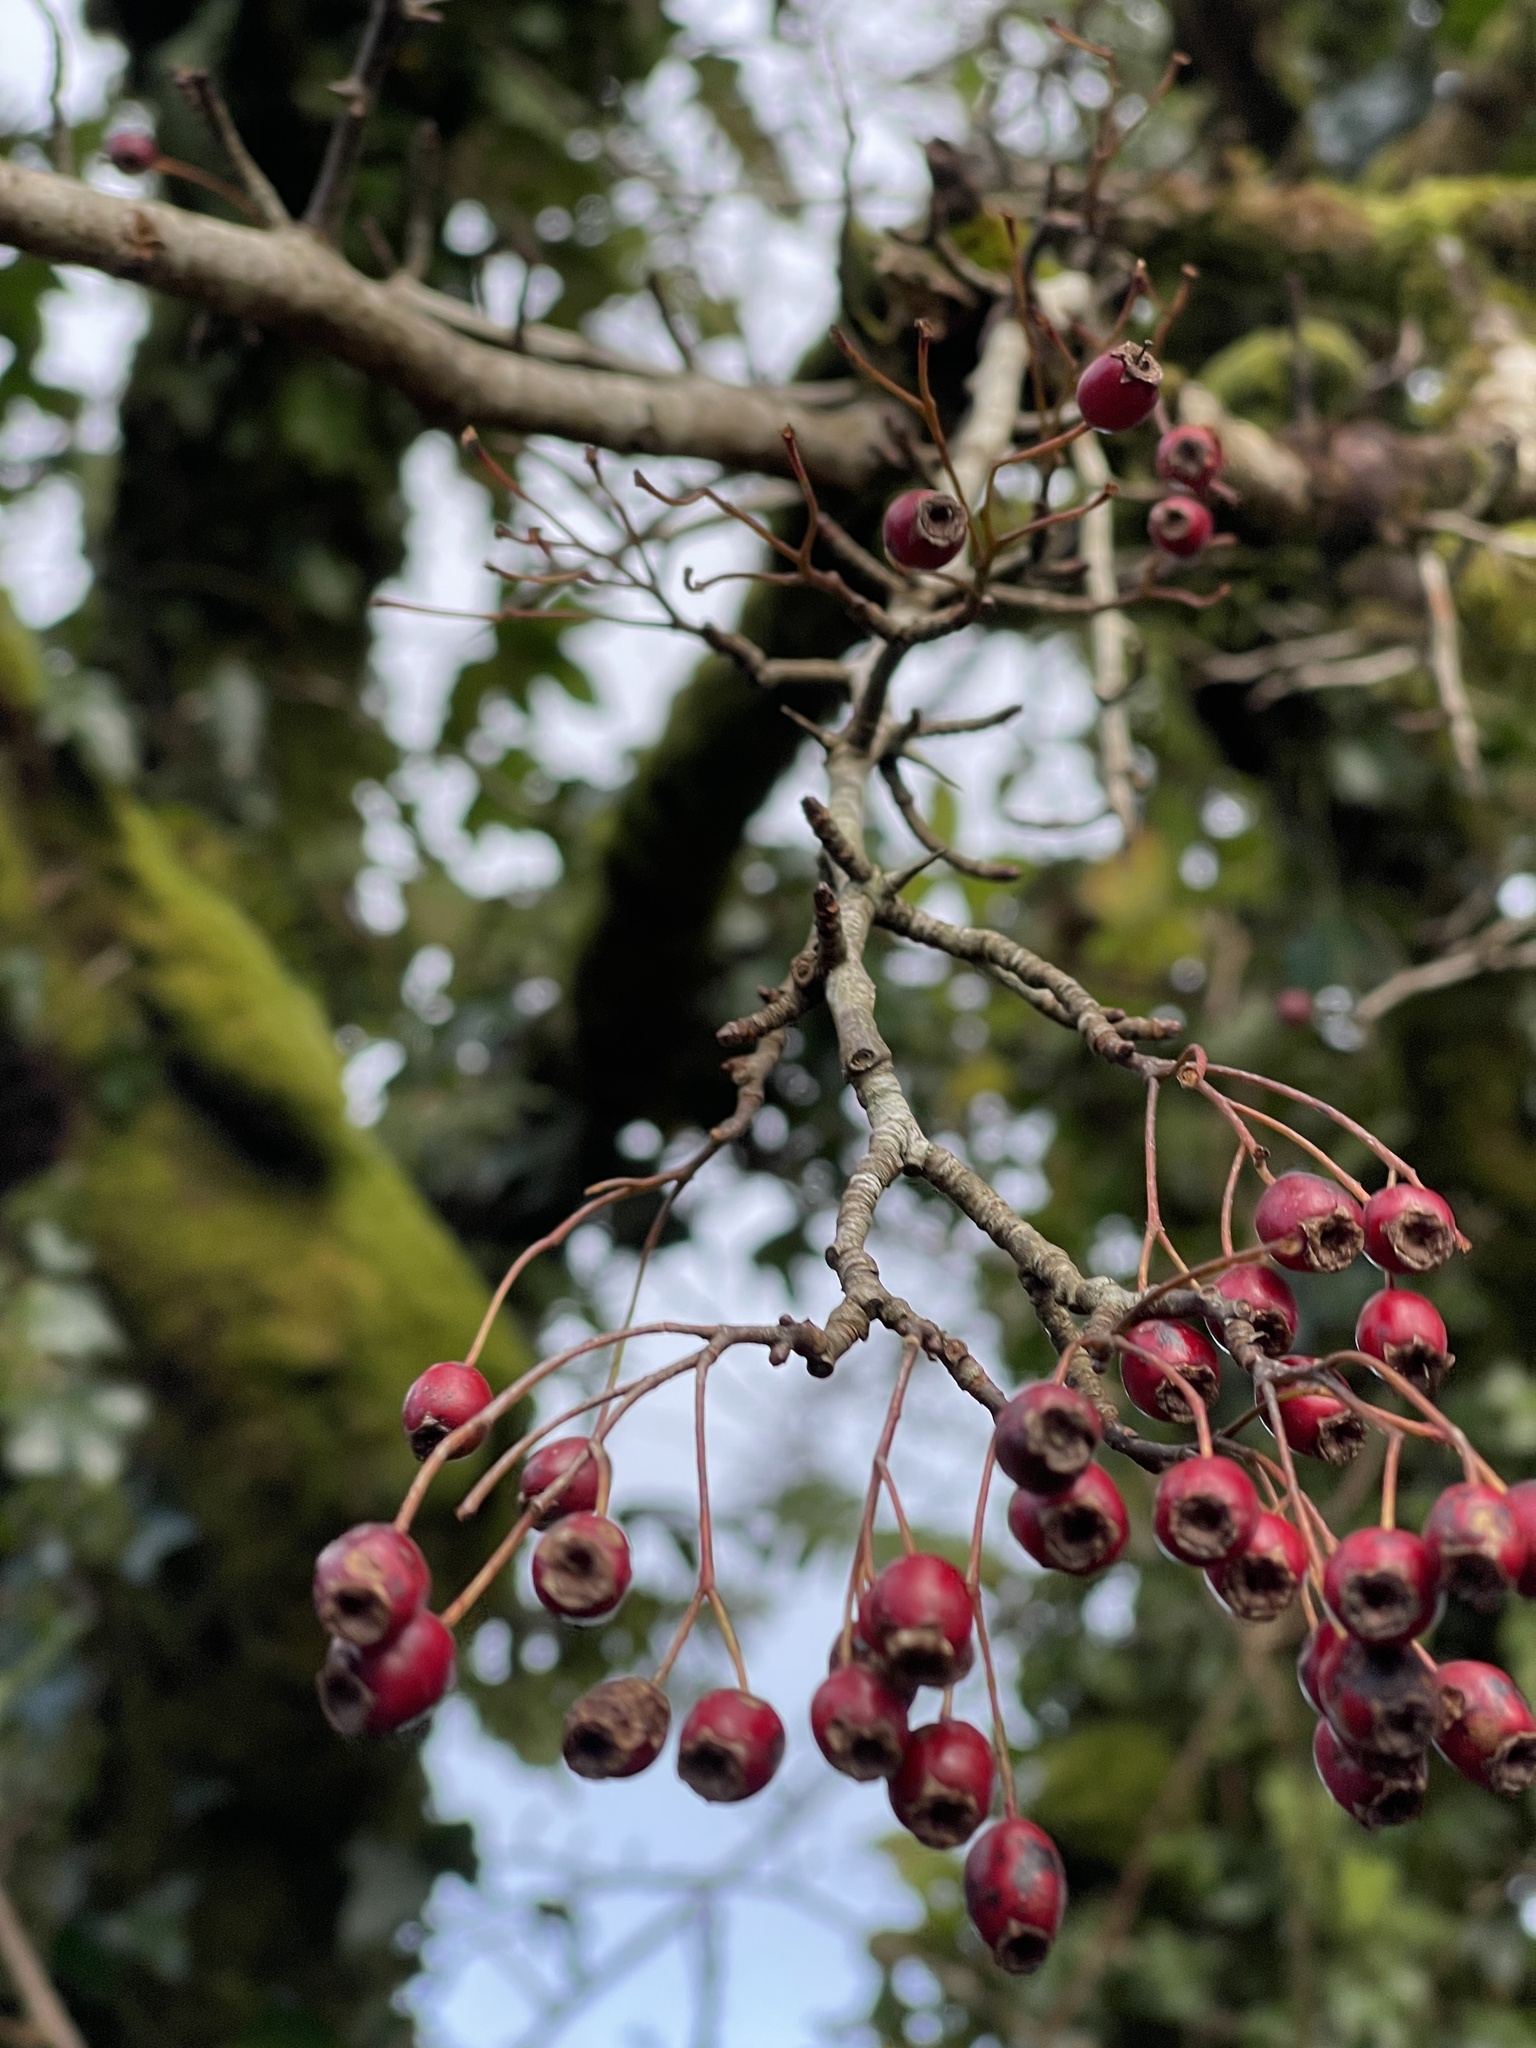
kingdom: Plantae
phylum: Tracheophyta
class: Magnoliopsida
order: Rosales
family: Rosaceae
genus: Crataegus
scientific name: Crataegus monogyna
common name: Hawthorn
